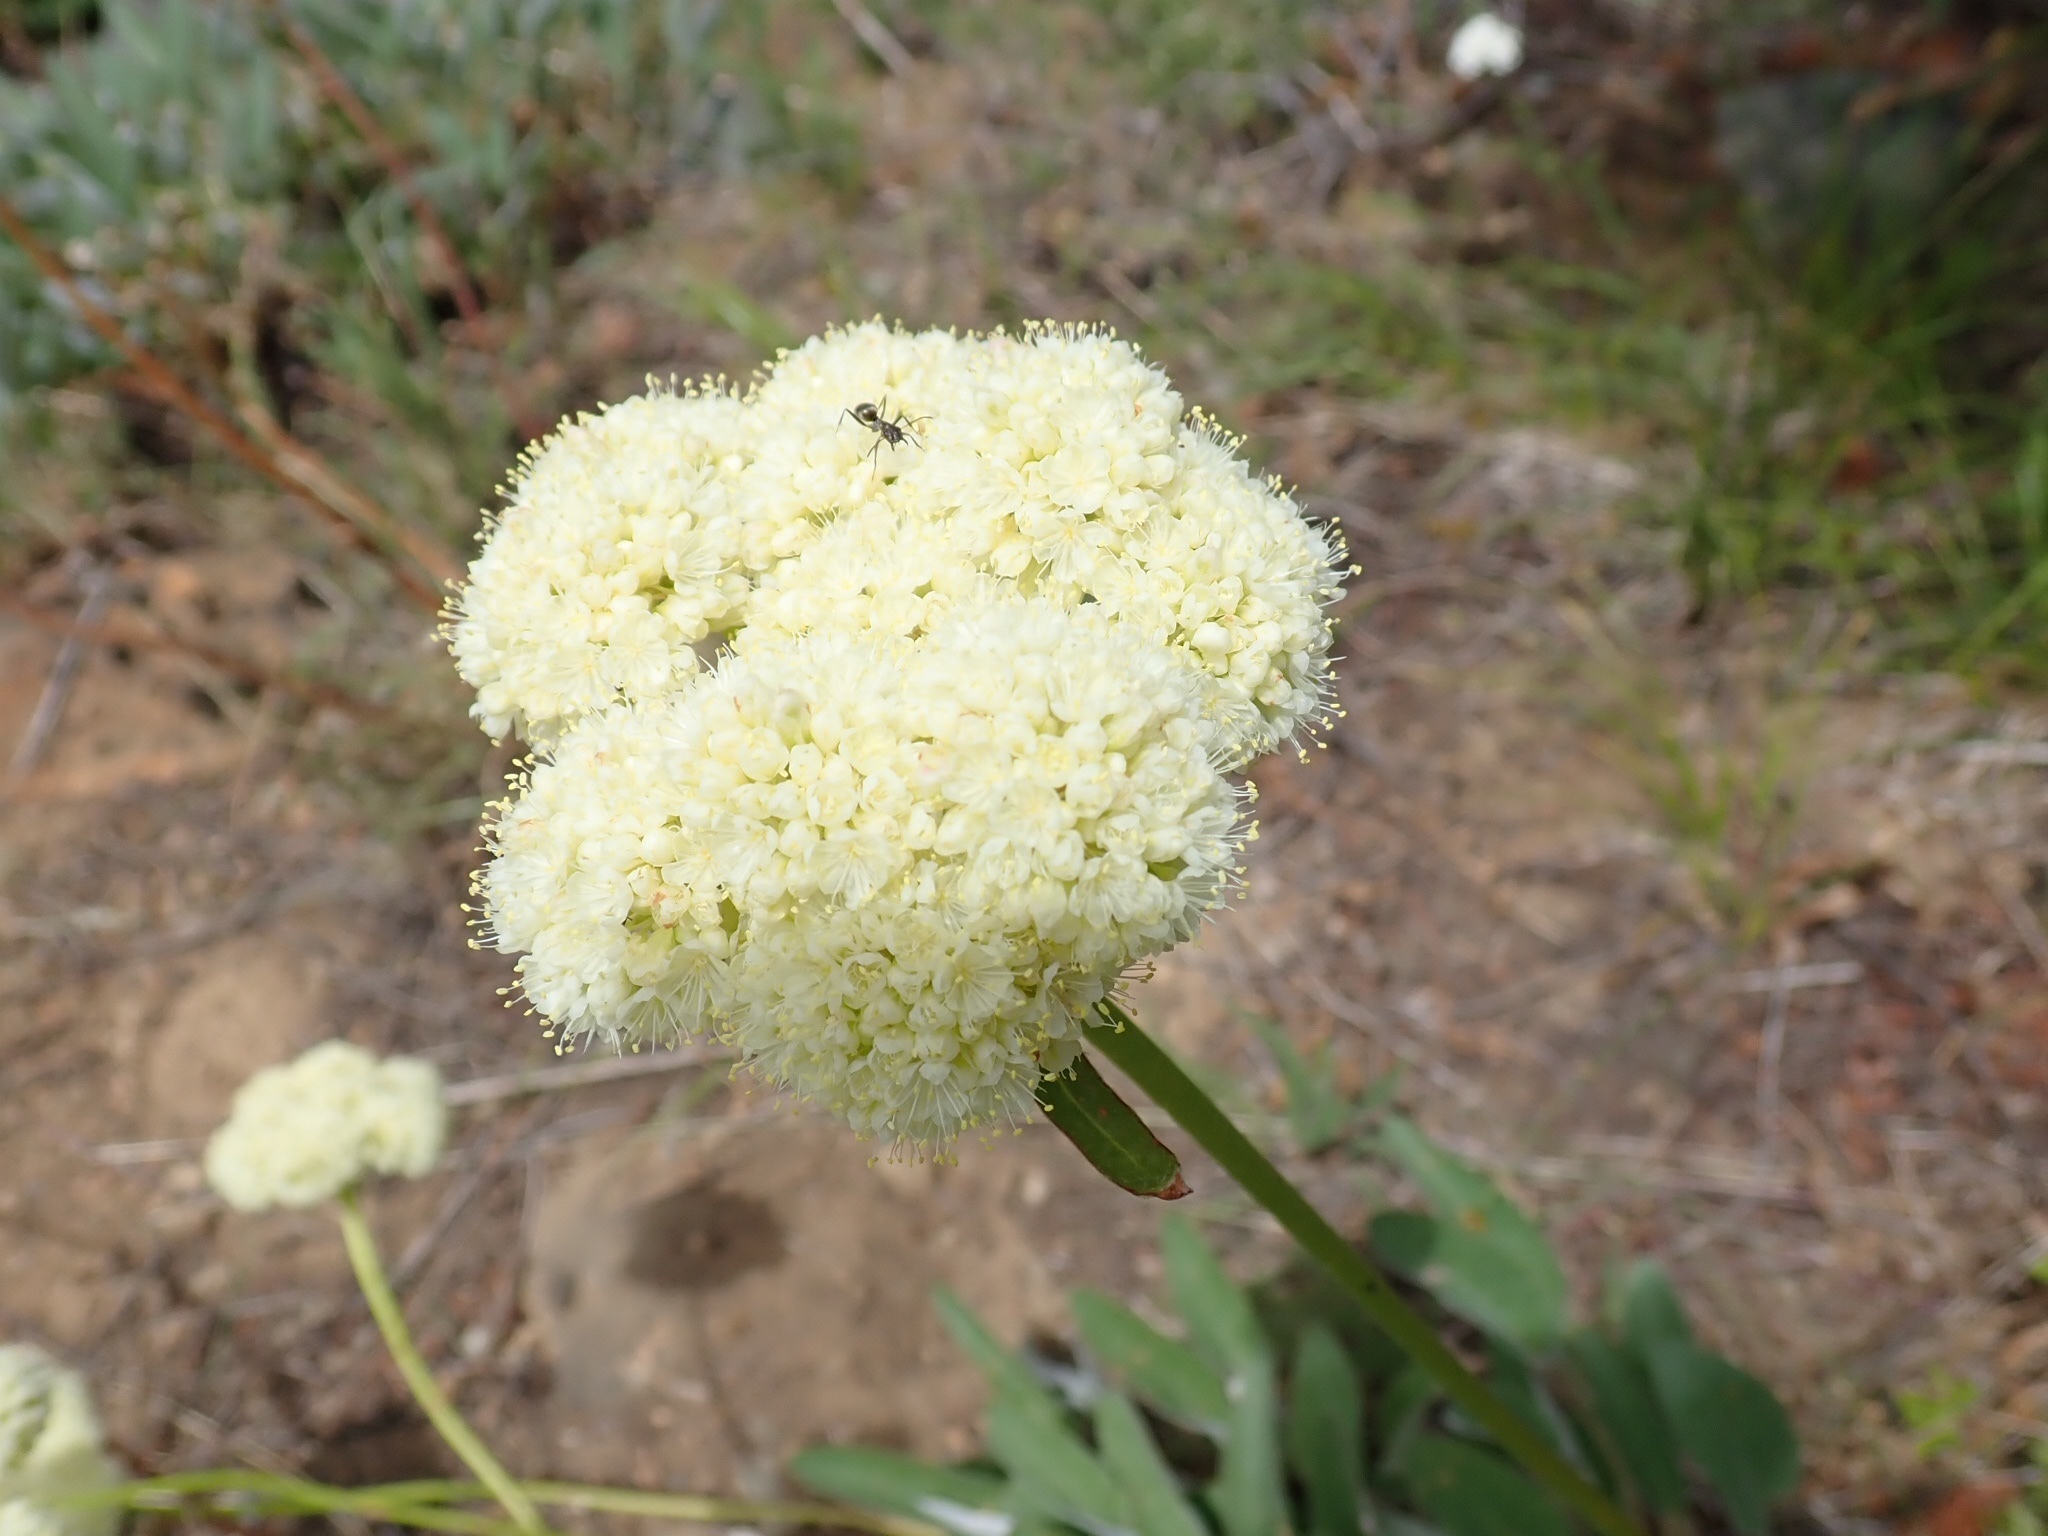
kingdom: Plantae
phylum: Tracheophyta
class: Magnoliopsida
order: Caryophyllales
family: Polygonaceae
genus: Eriogonum
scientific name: Eriogonum compositum
